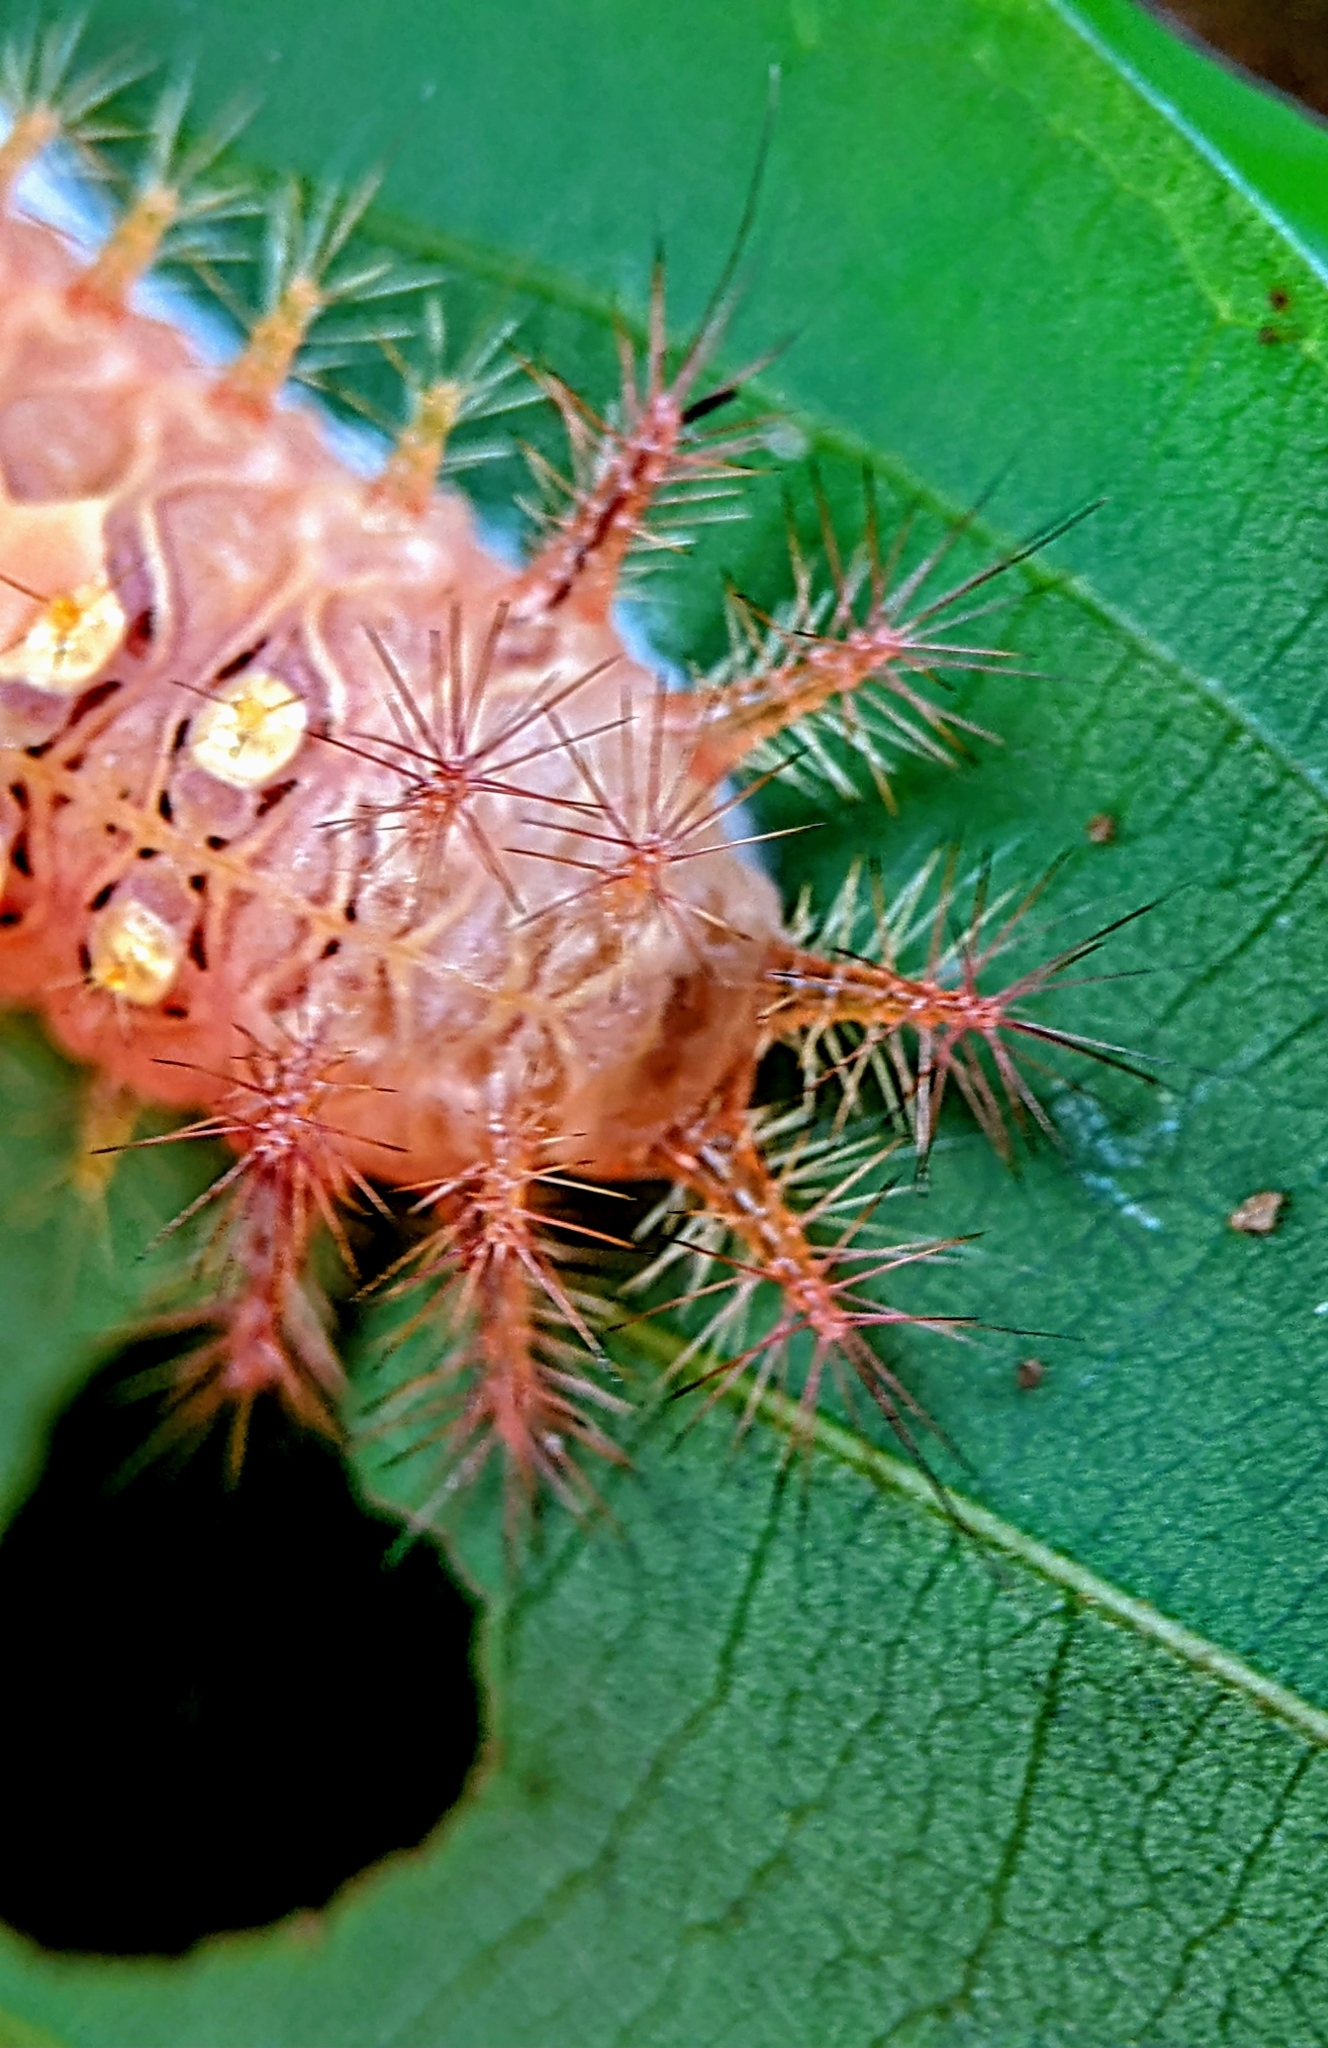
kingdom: Animalia
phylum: Arthropoda
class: Insecta
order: Lepidoptera
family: Limacodidae
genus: Ploneta
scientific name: Ploneta diducta
